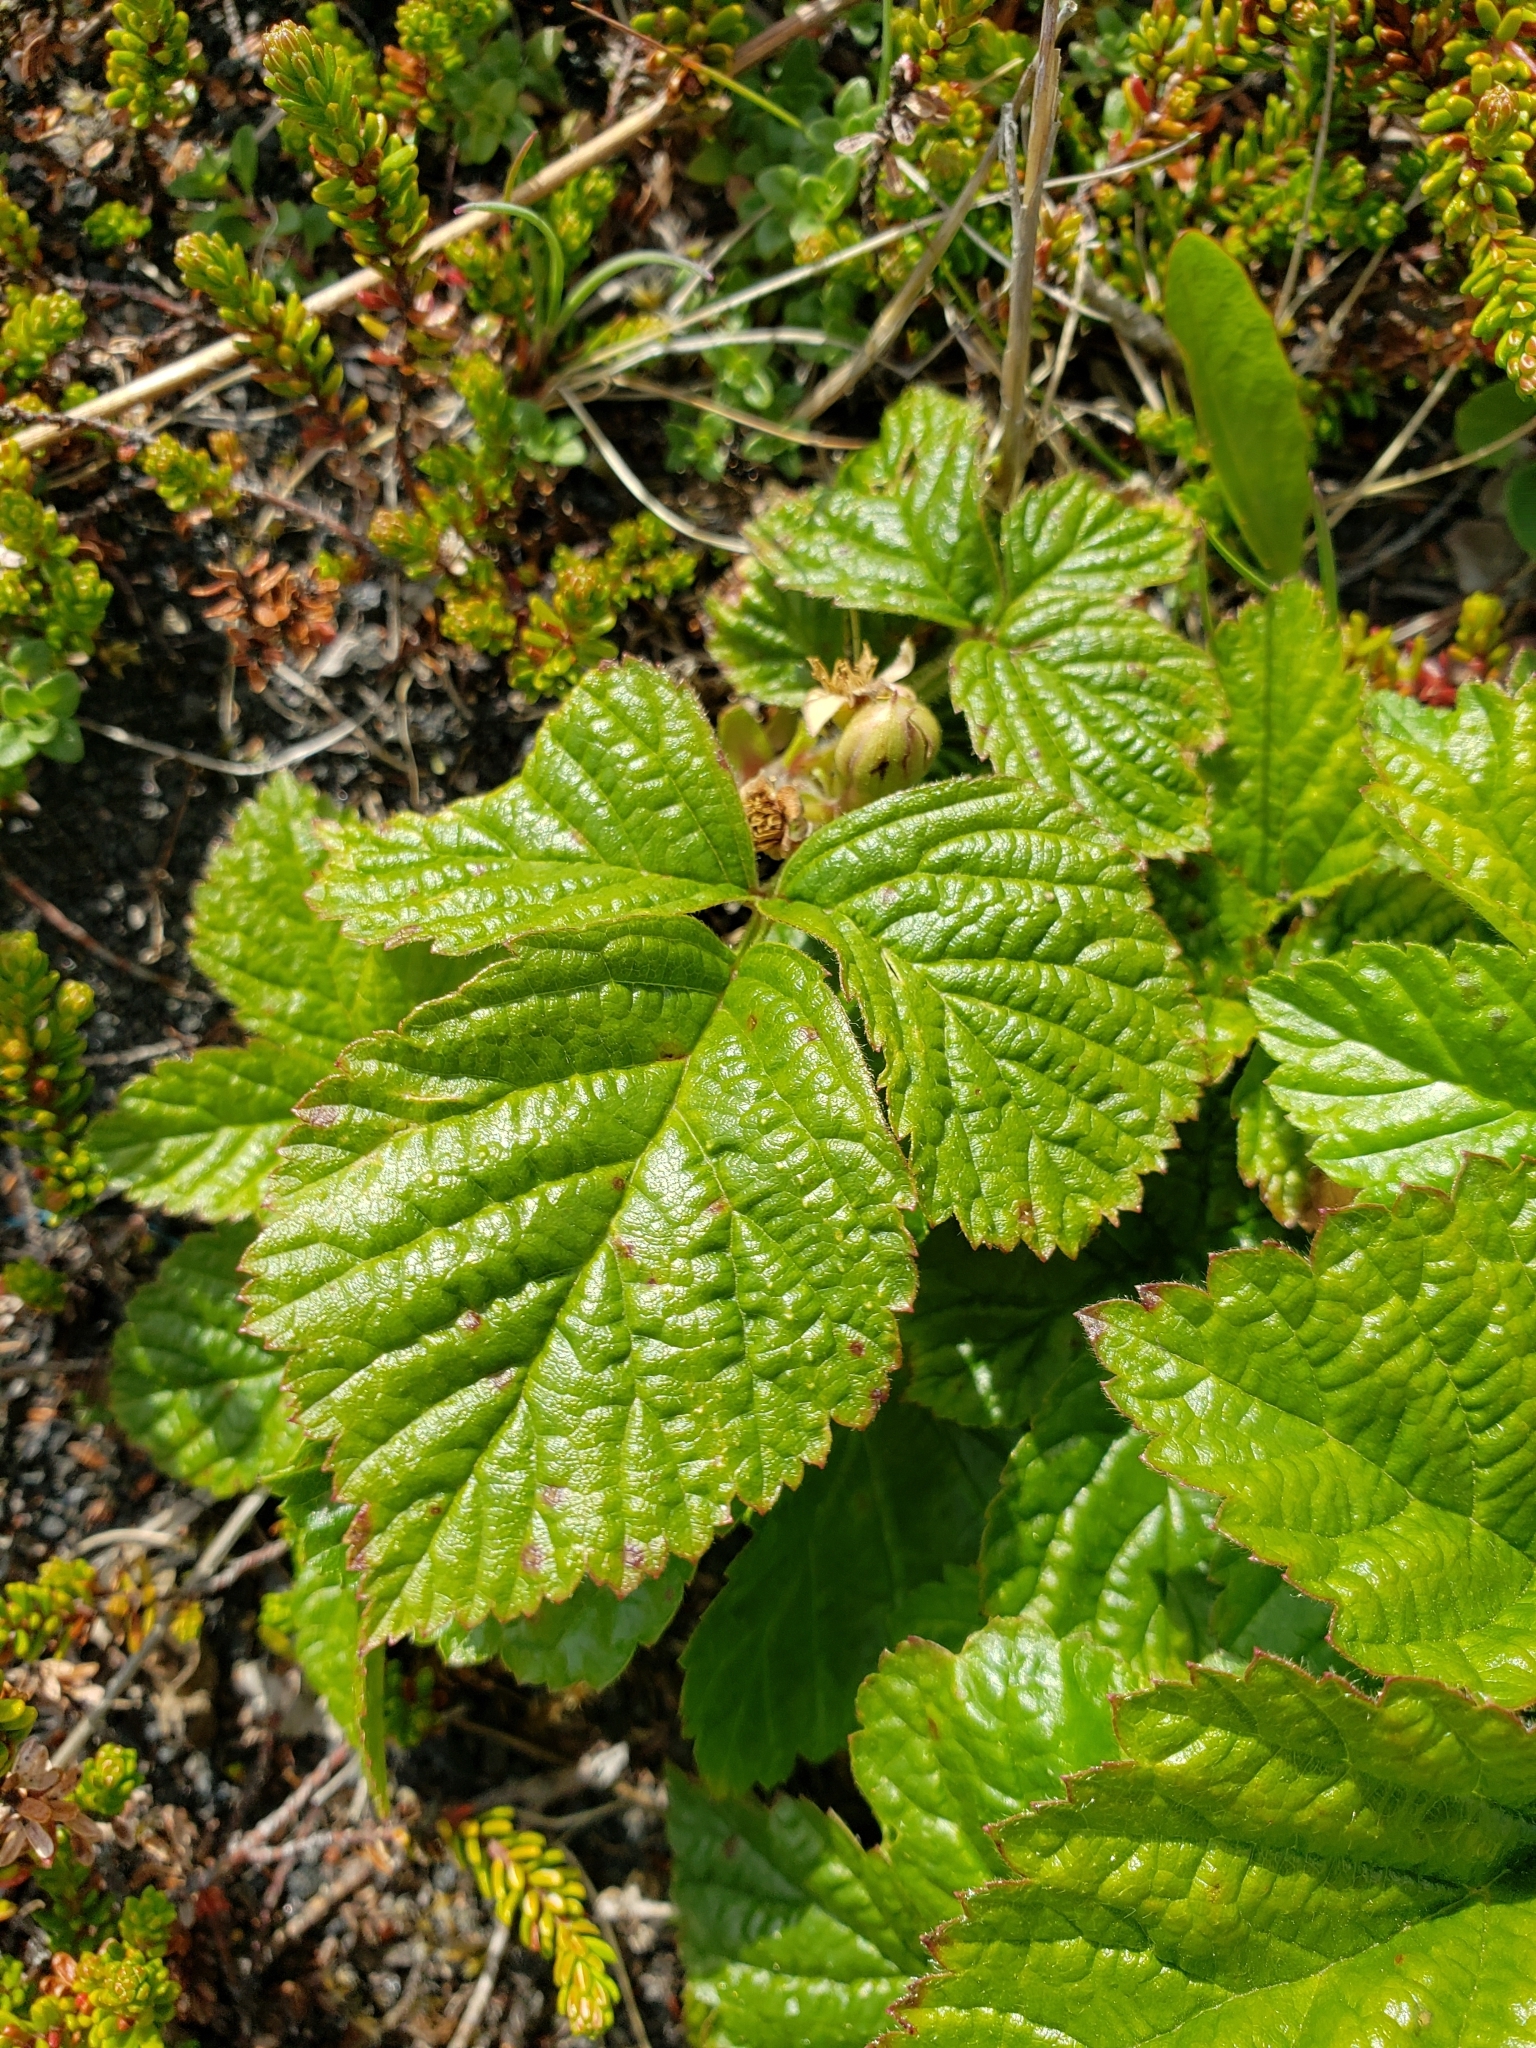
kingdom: Plantae
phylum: Tracheophyta
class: Magnoliopsida
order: Rosales
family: Rosaceae
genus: Rubus
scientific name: Rubus saxatilis
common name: Stone bramble
